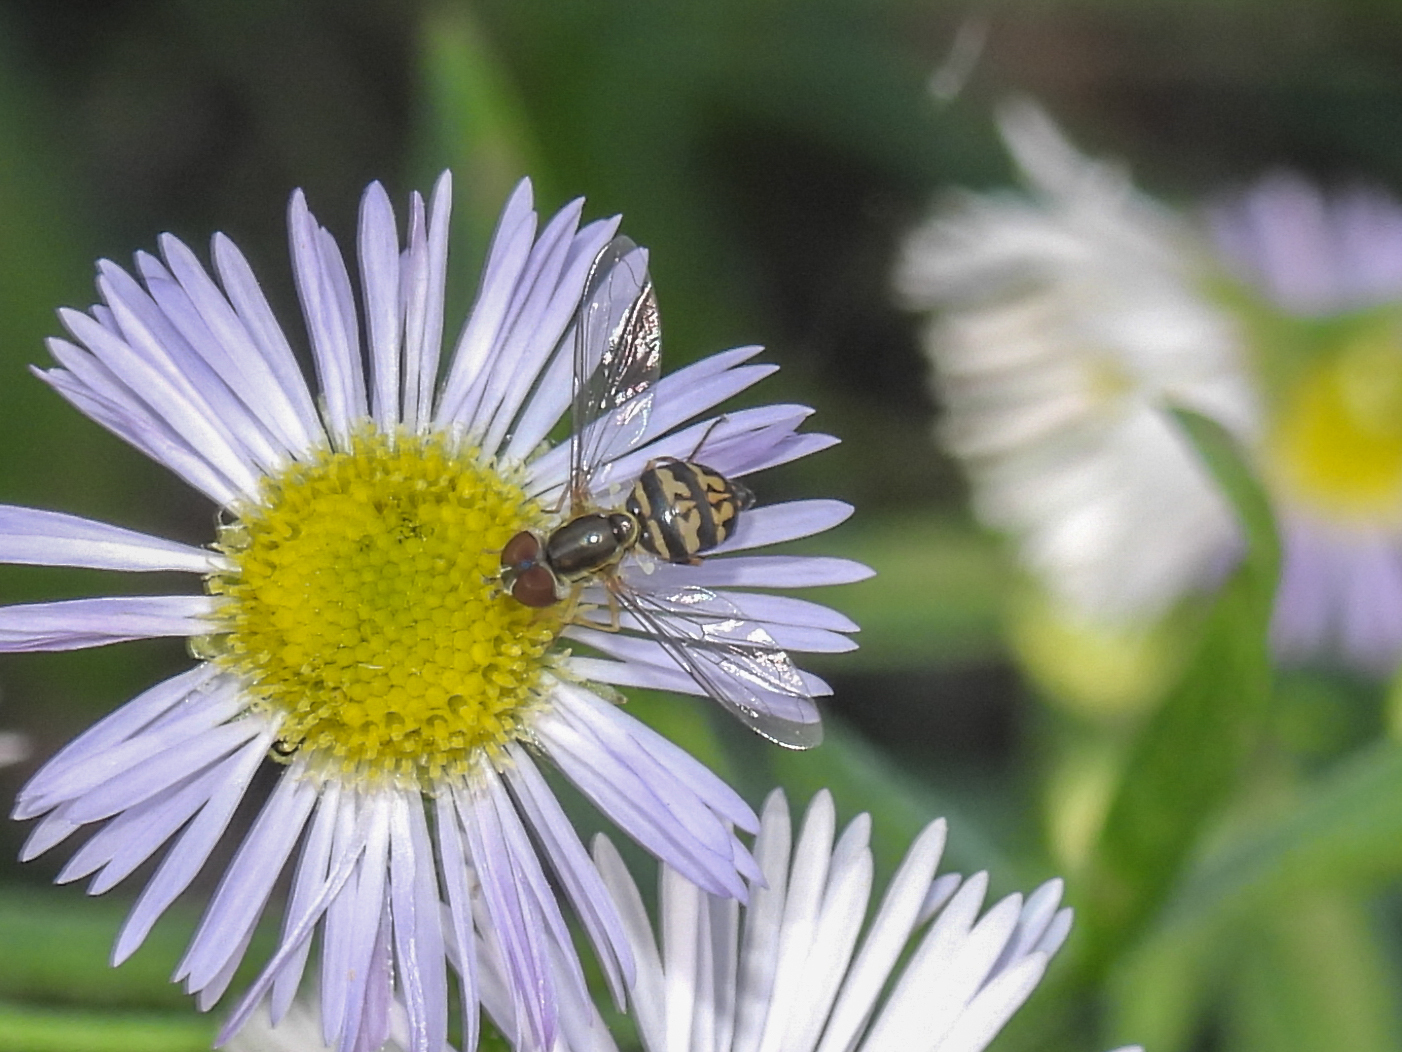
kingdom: Animalia
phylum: Arthropoda
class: Insecta
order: Diptera
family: Syrphidae
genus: Toxomerus
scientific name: Toxomerus geminatus
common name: Eastern calligrapher
